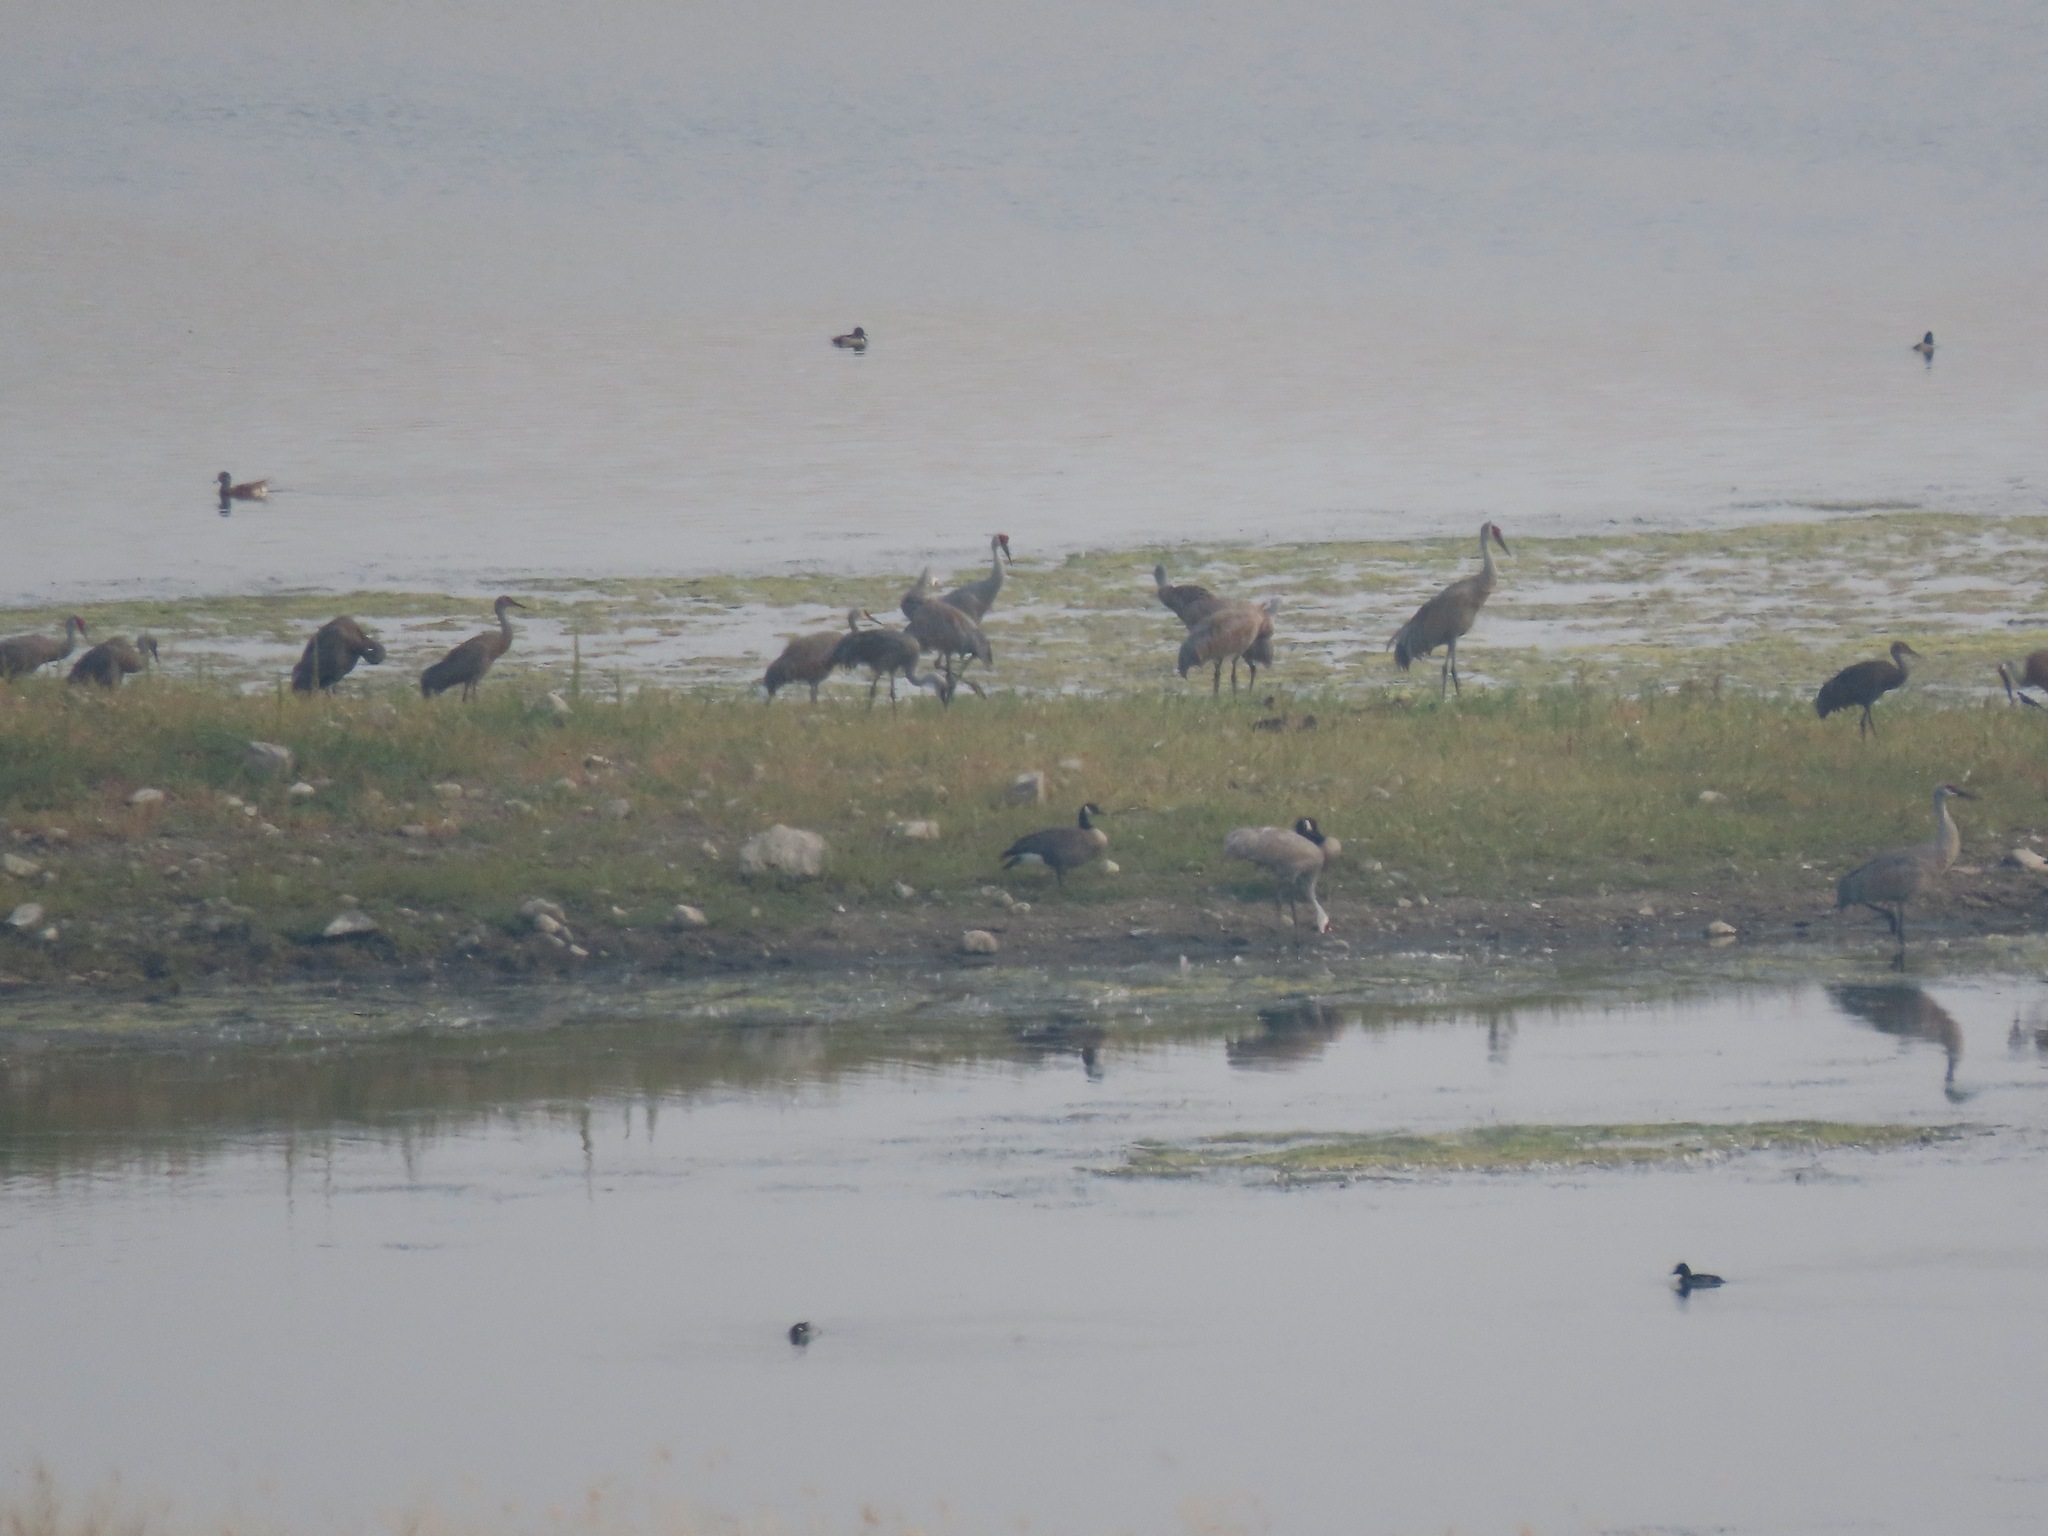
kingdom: Animalia
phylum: Chordata
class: Aves
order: Anseriformes
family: Anatidae
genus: Branta
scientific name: Branta canadensis
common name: Canada goose
